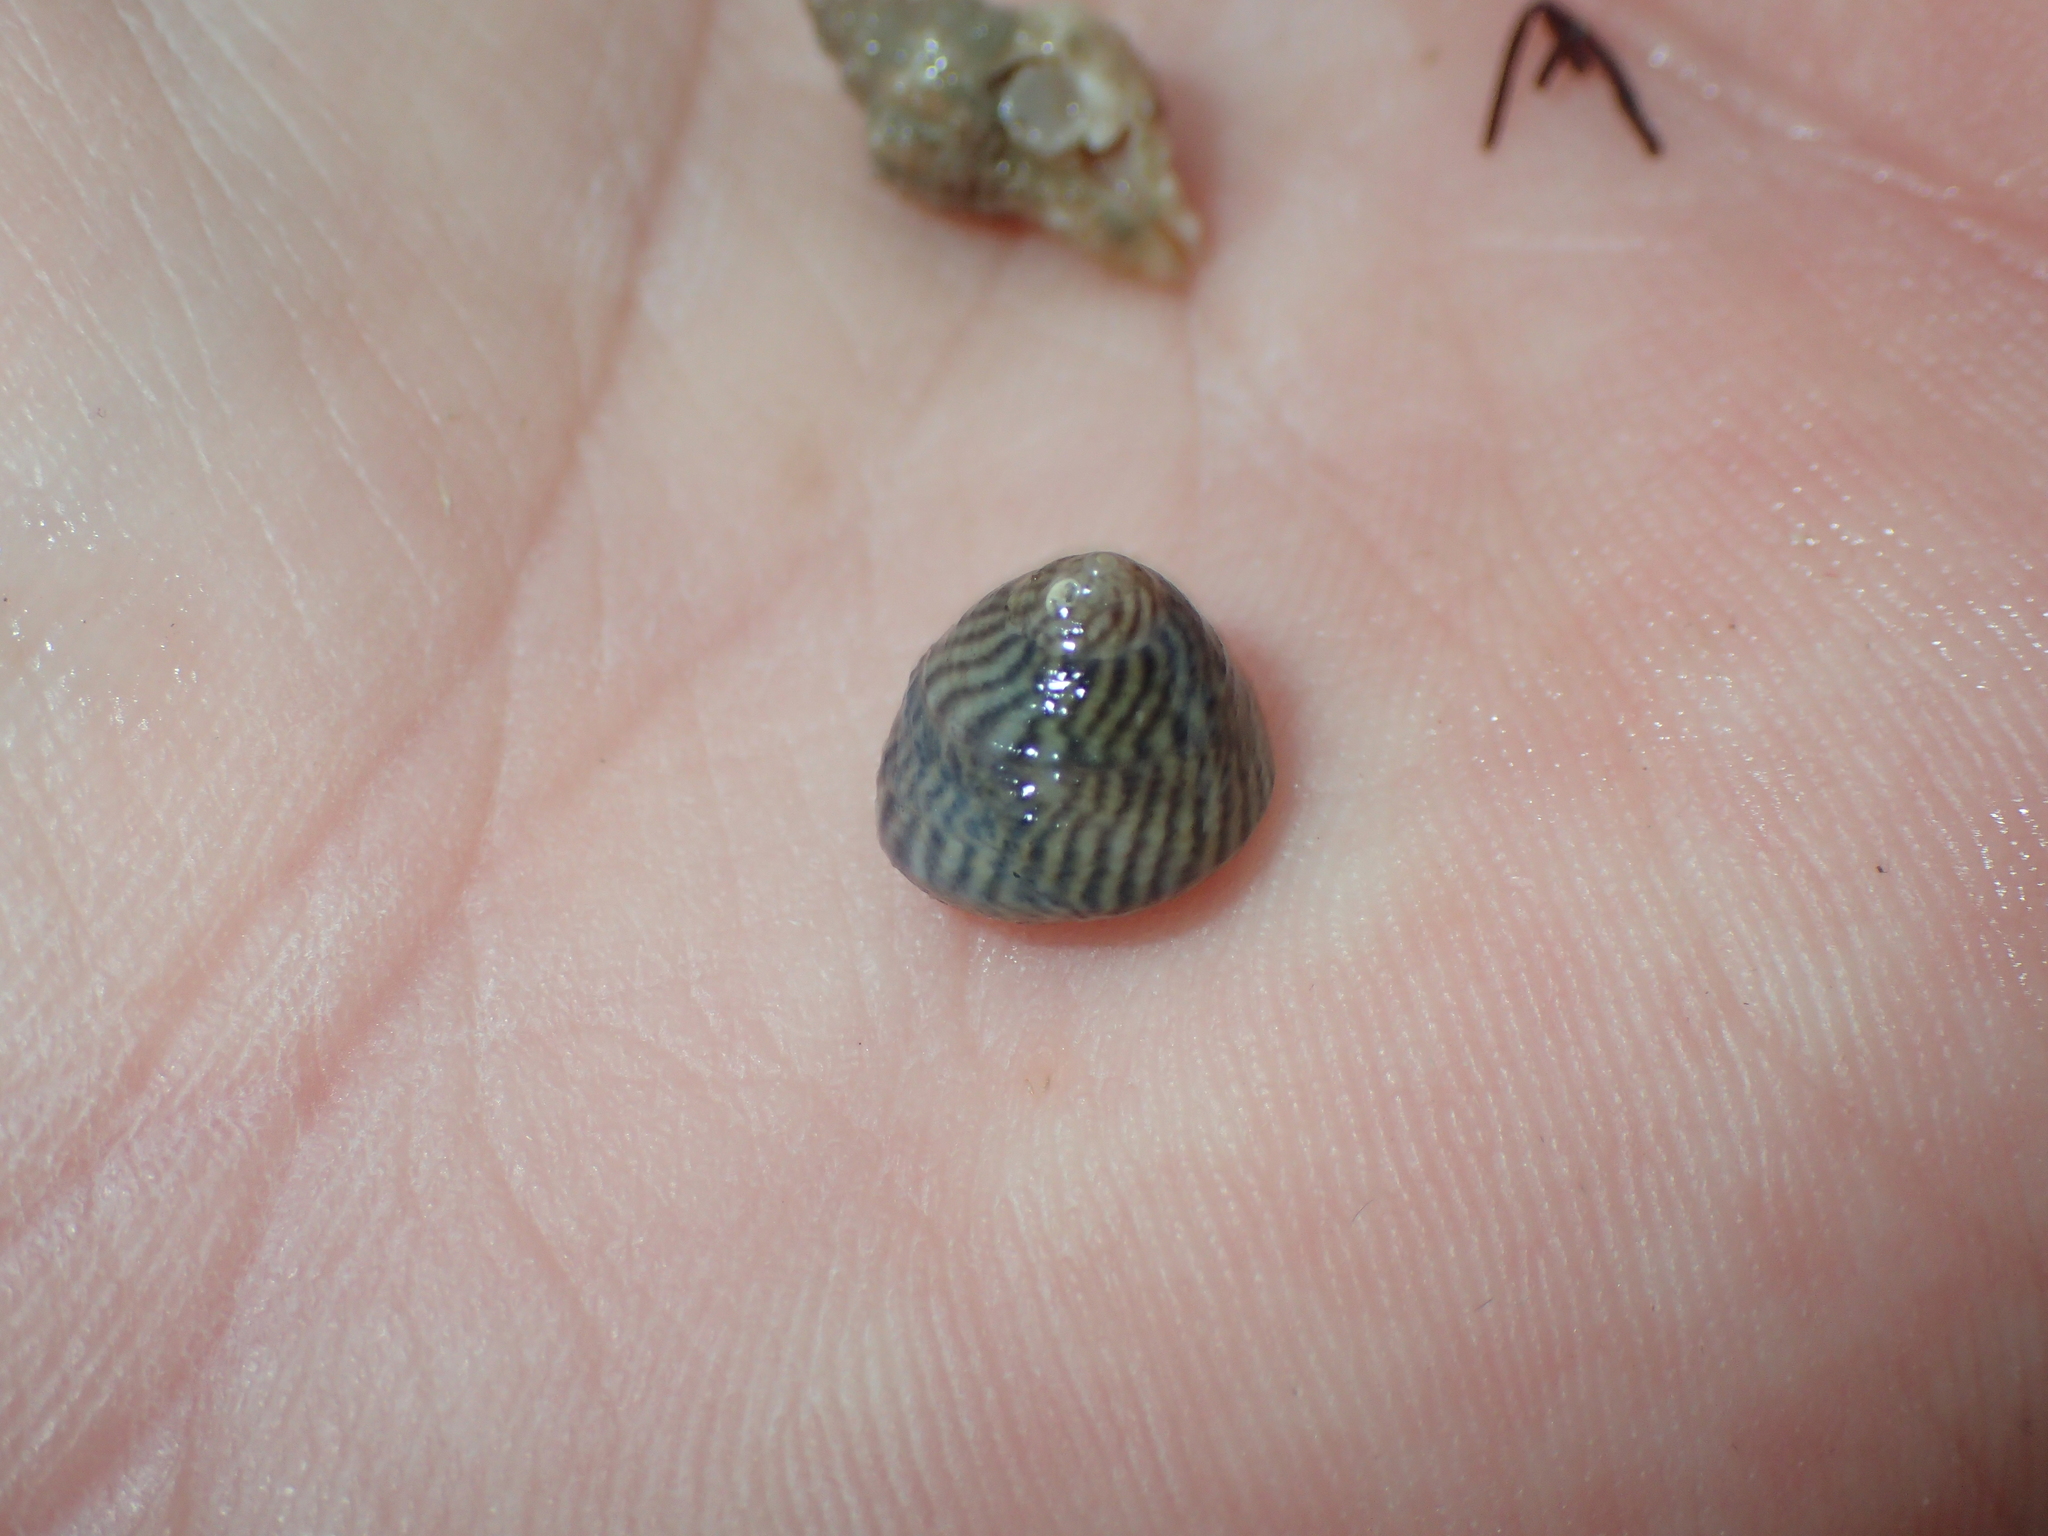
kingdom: Animalia
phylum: Mollusca
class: Gastropoda
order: Trochida
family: Trochidae
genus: Steromphala
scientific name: Steromphala cineraria
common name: Grey top shell
